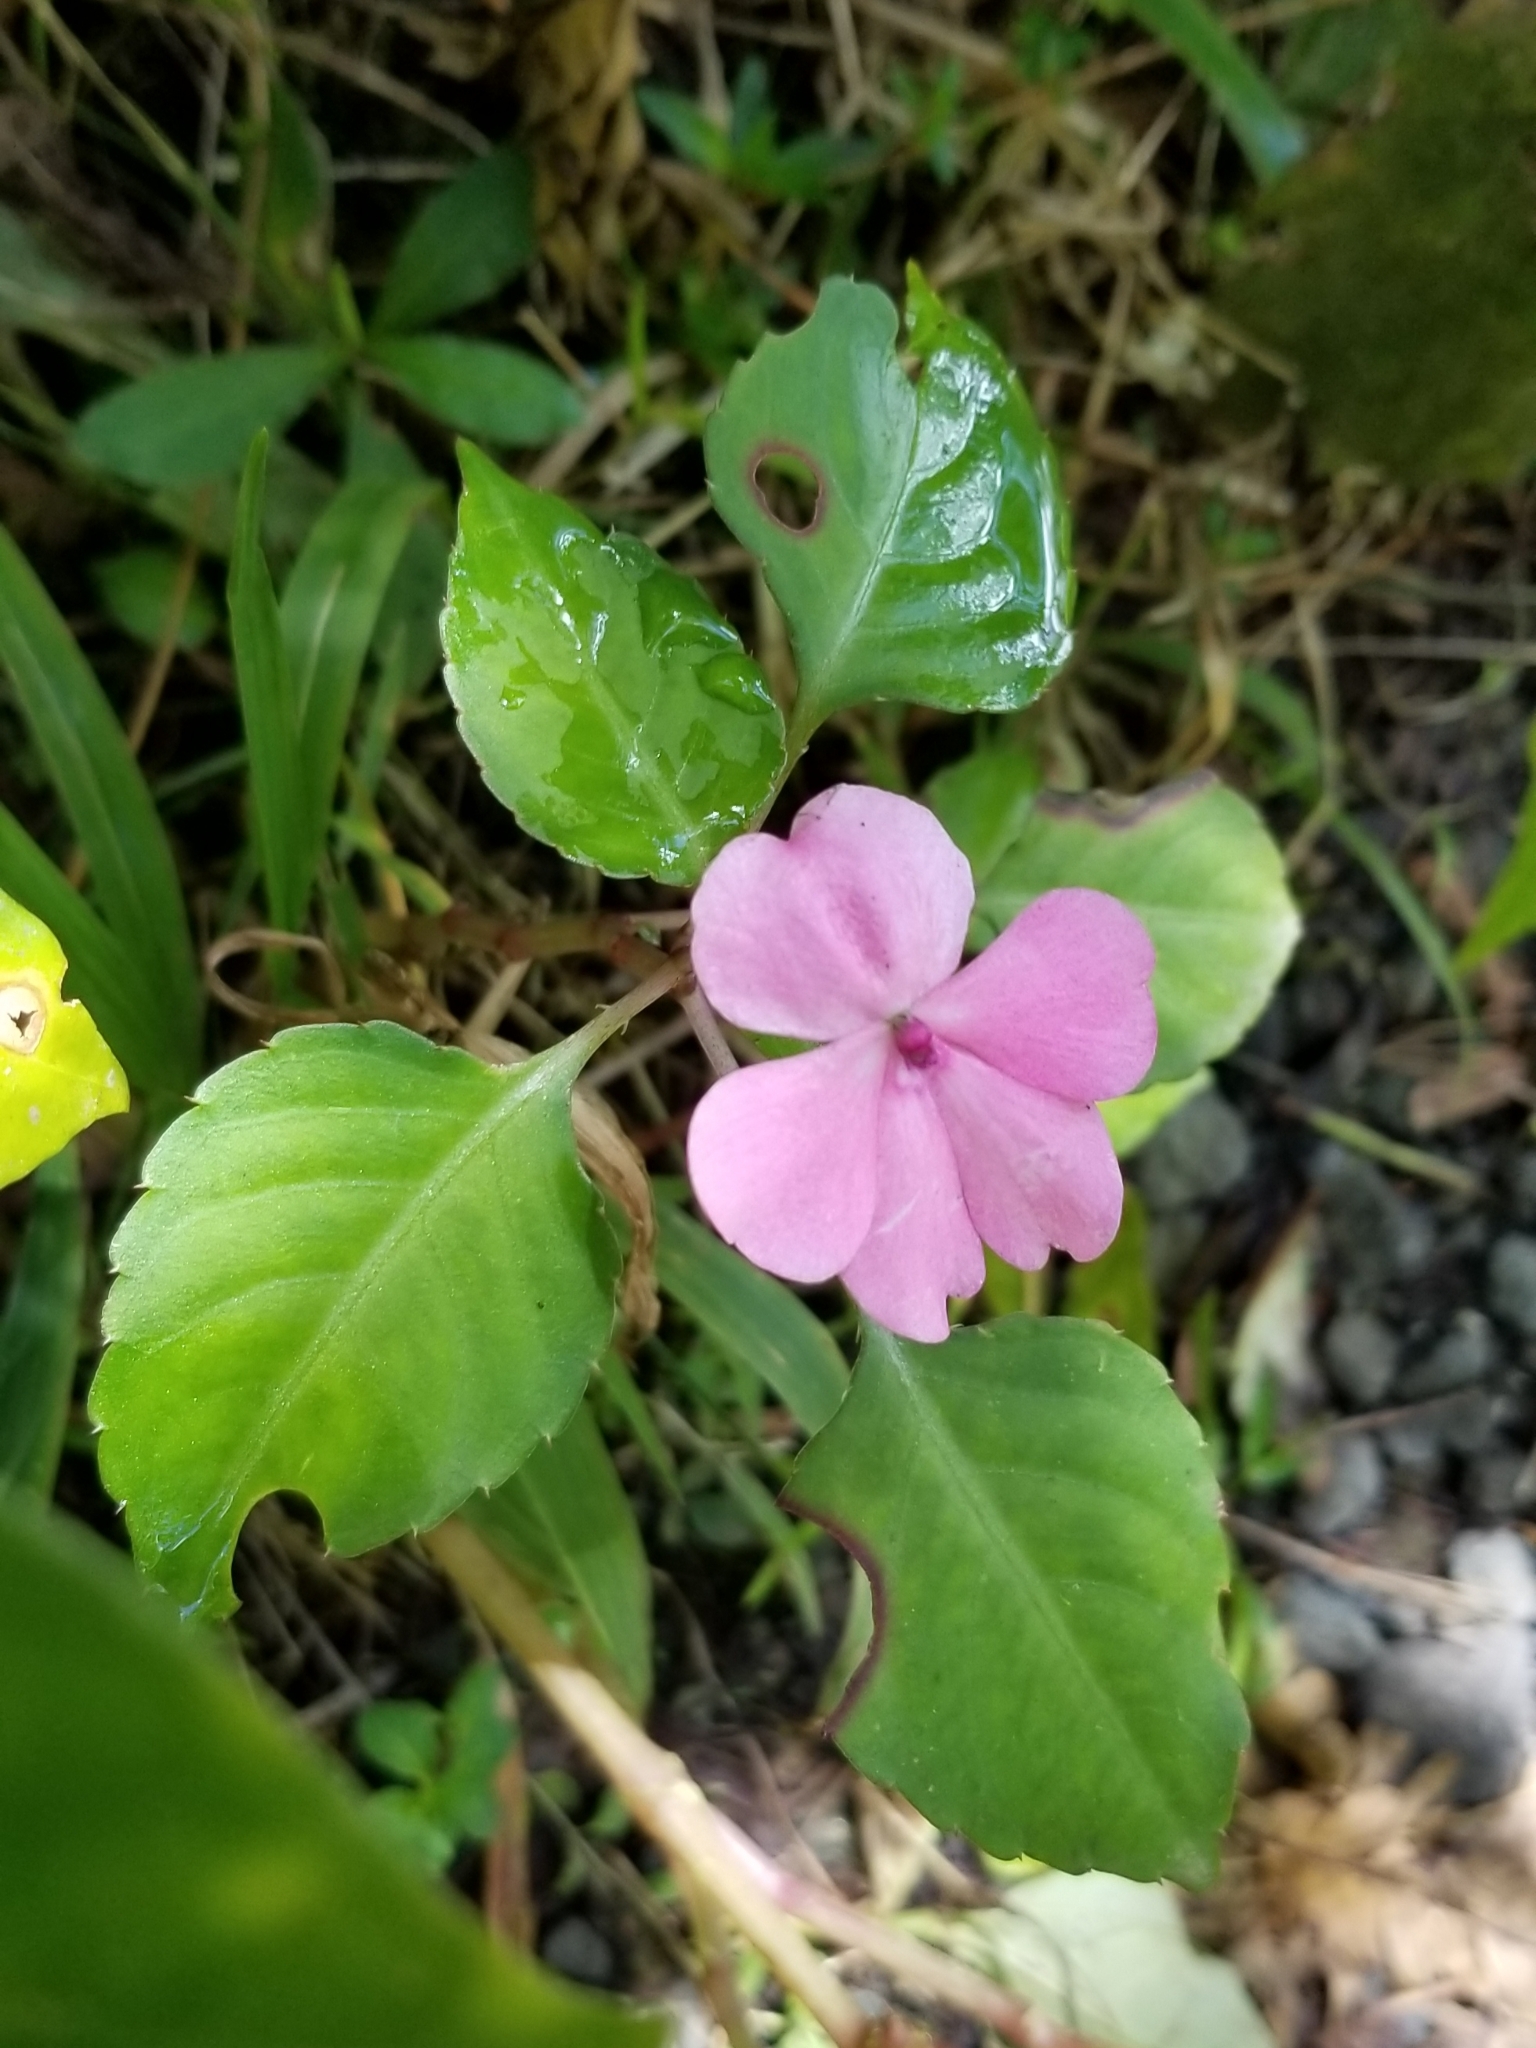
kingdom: Plantae
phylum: Tracheophyta
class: Magnoliopsida
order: Ericales
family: Balsaminaceae
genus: Impatiens
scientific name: Impatiens walleriana
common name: Buzzy lizzy
